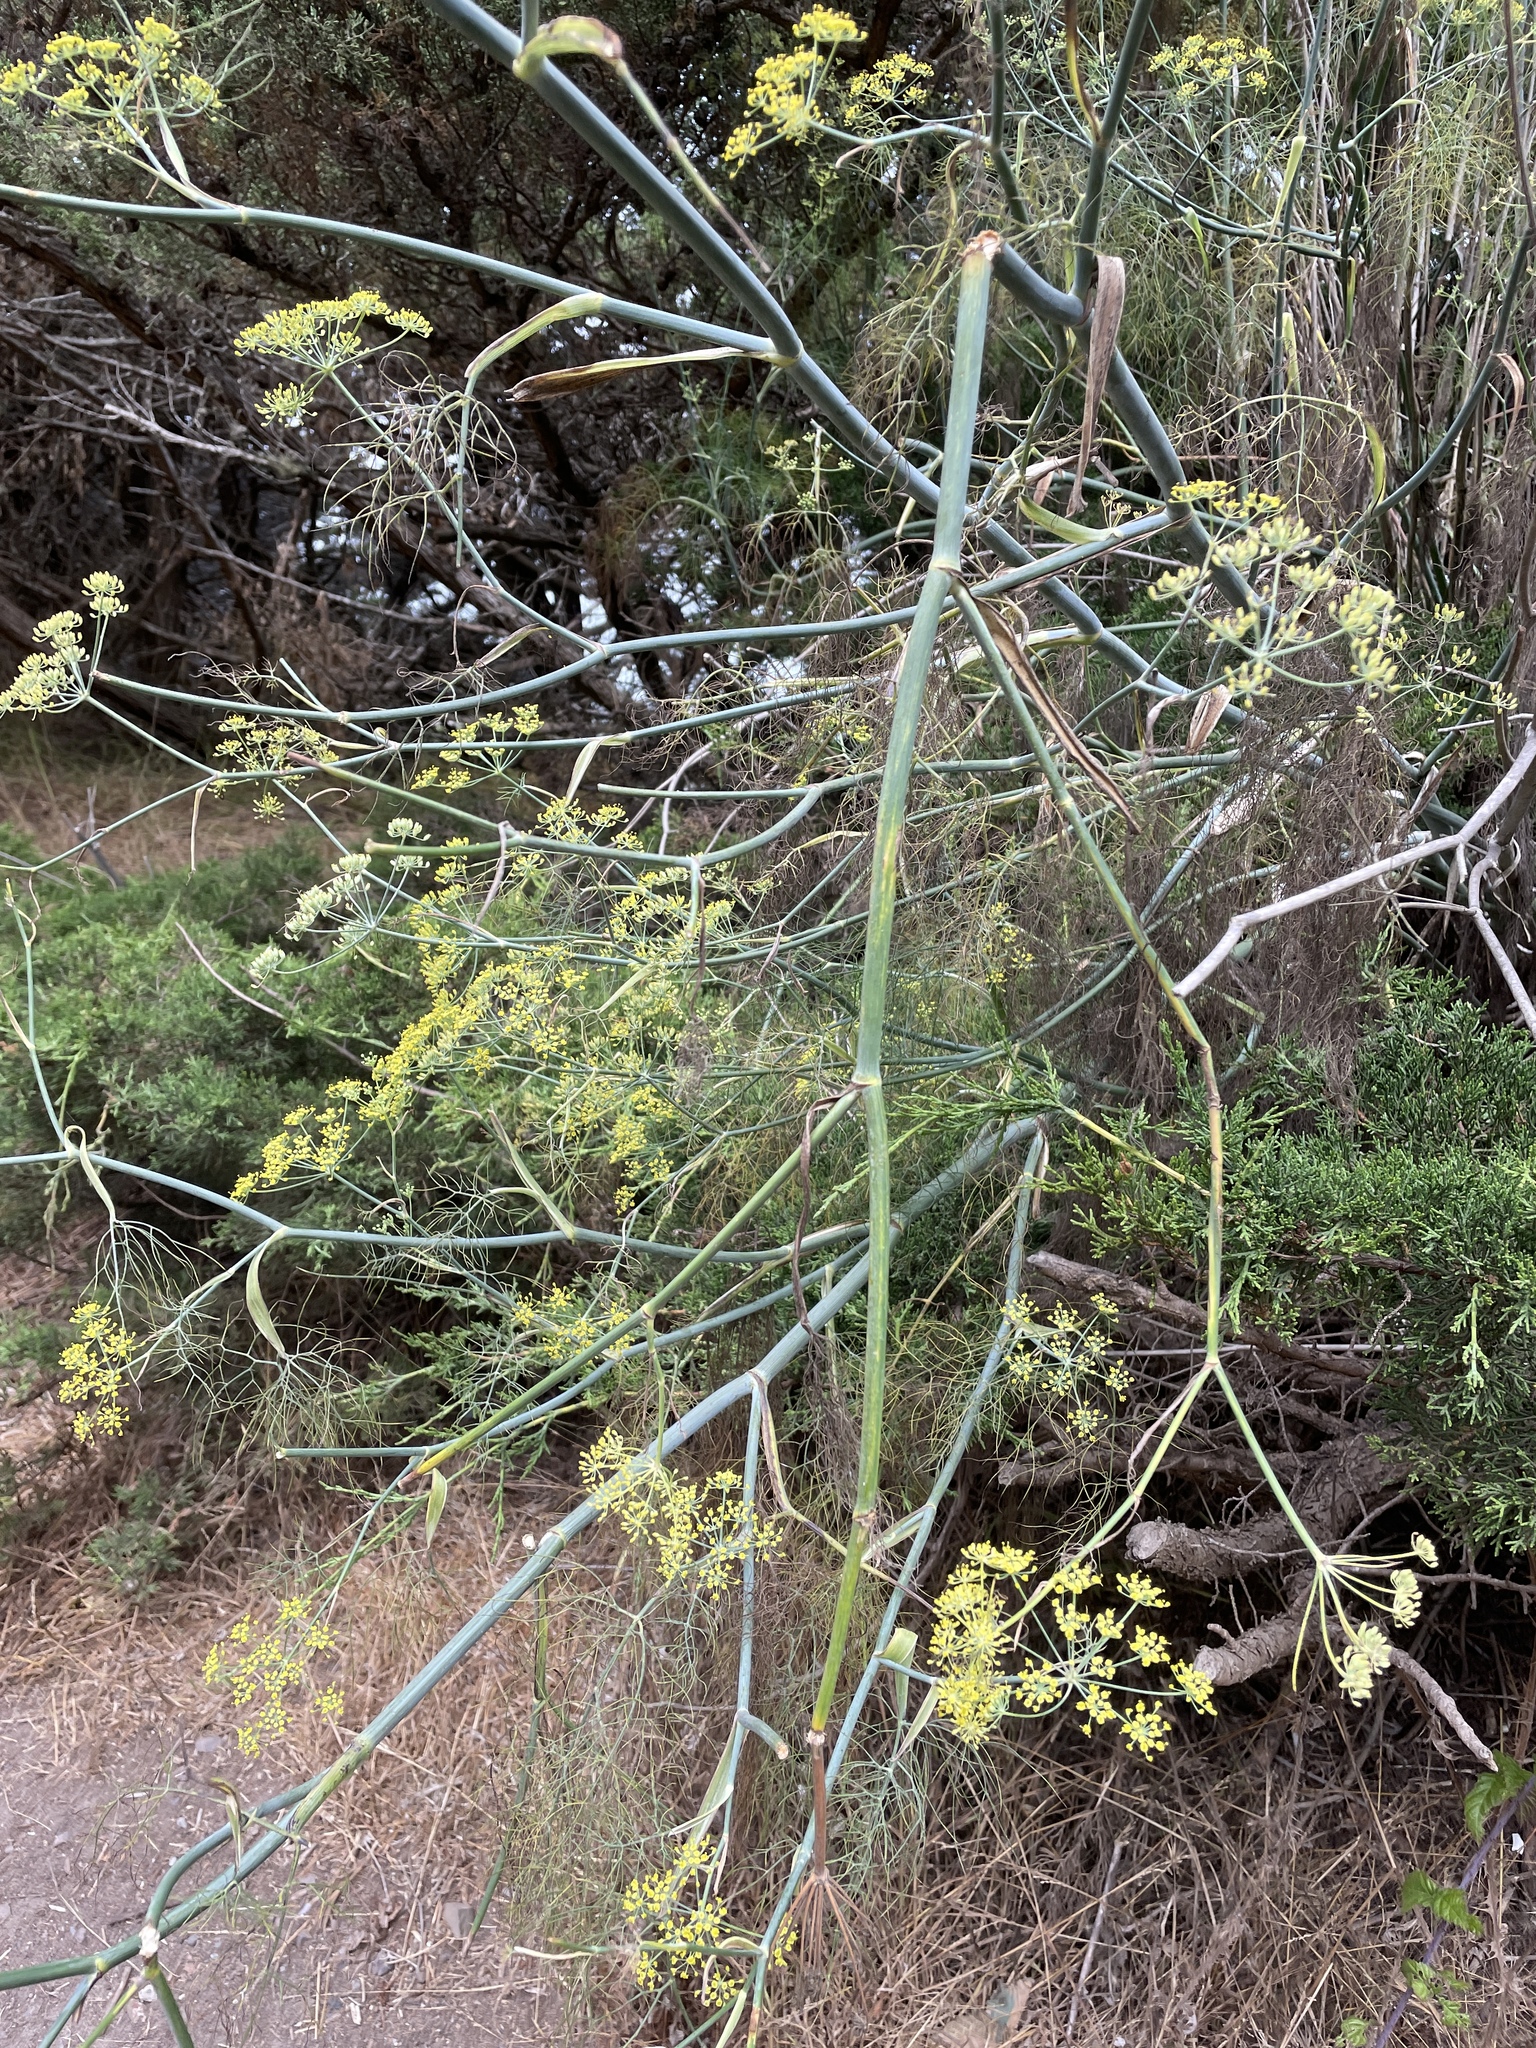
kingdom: Plantae
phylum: Tracheophyta
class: Magnoliopsida
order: Apiales
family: Apiaceae
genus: Foeniculum
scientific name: Foeniculum vulgare
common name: Fennel
